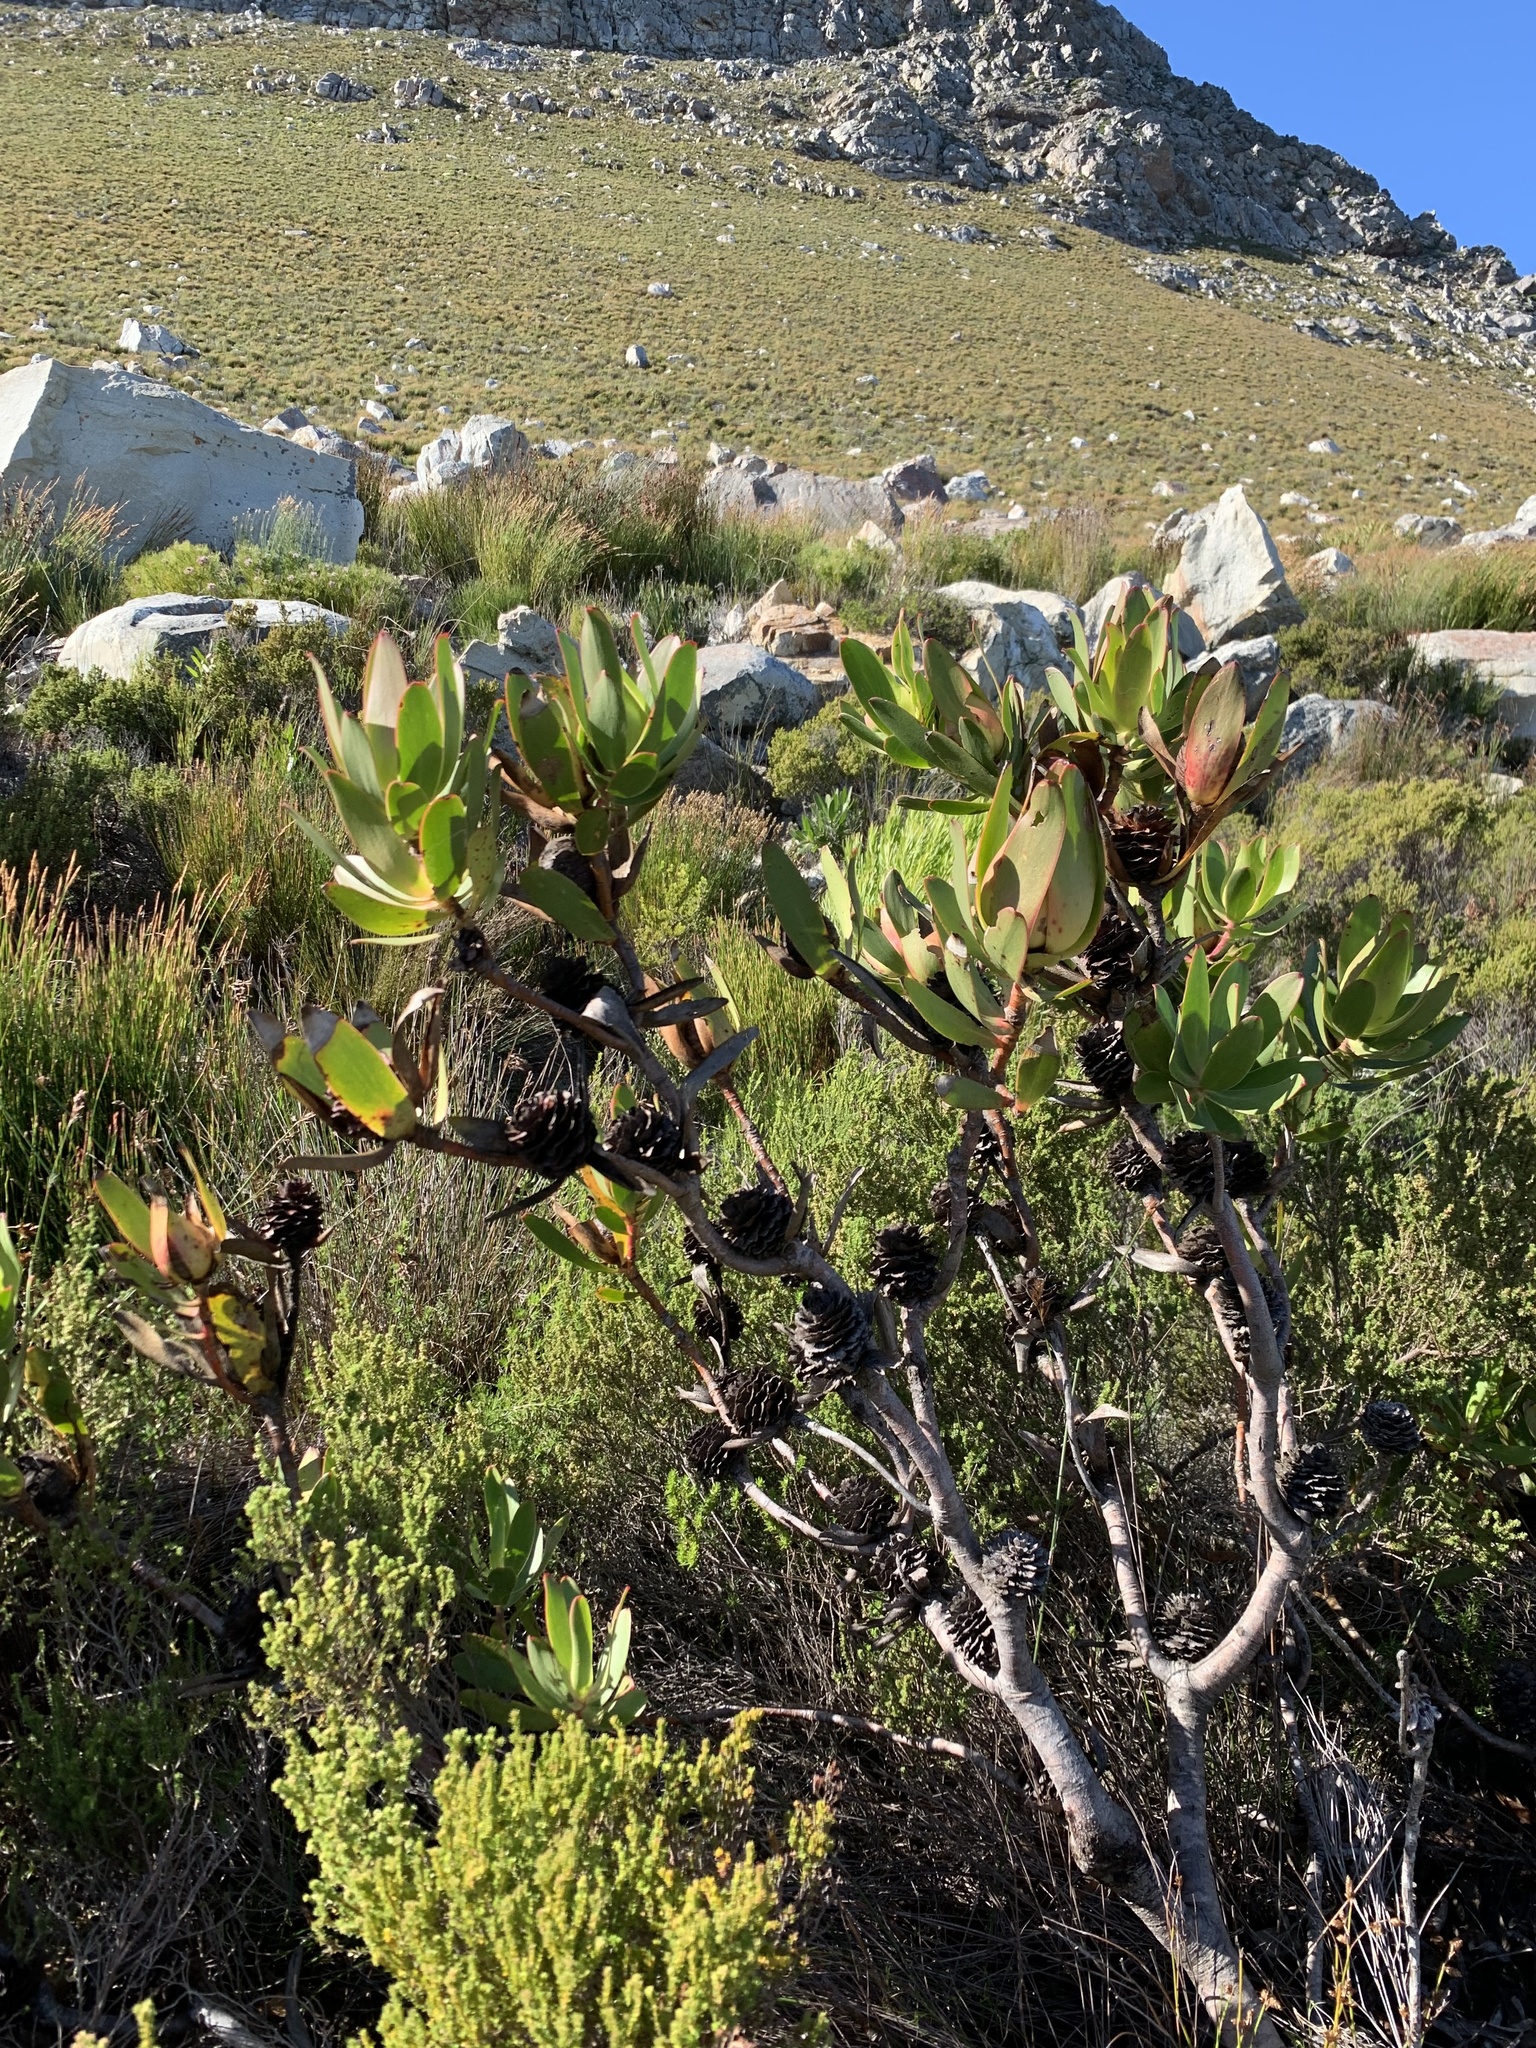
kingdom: Plantae
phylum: Tracheophyta
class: Magnoliopsida
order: Proteales
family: Proteaceae
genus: Leucadendron
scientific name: Leucadendron laureolum
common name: Golden sunshinebush
